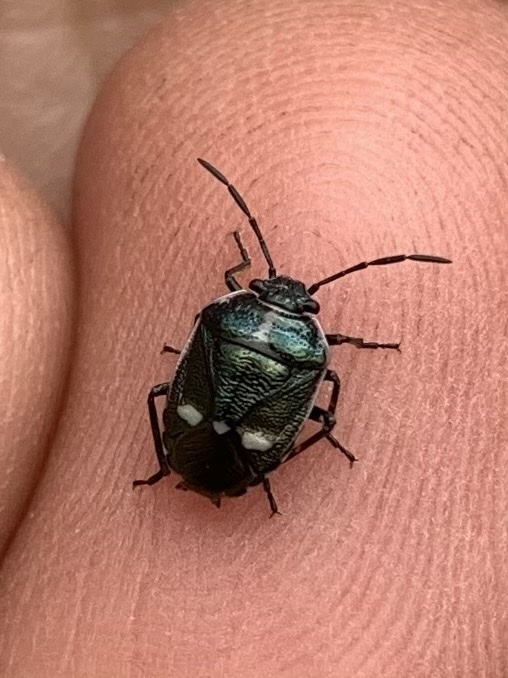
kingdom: Animalia
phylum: Arthropoda
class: Insecta
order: Hemiptera
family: Pentatomidae
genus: Eurydema
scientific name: Eurydema oleracea
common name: Cabbage bug
